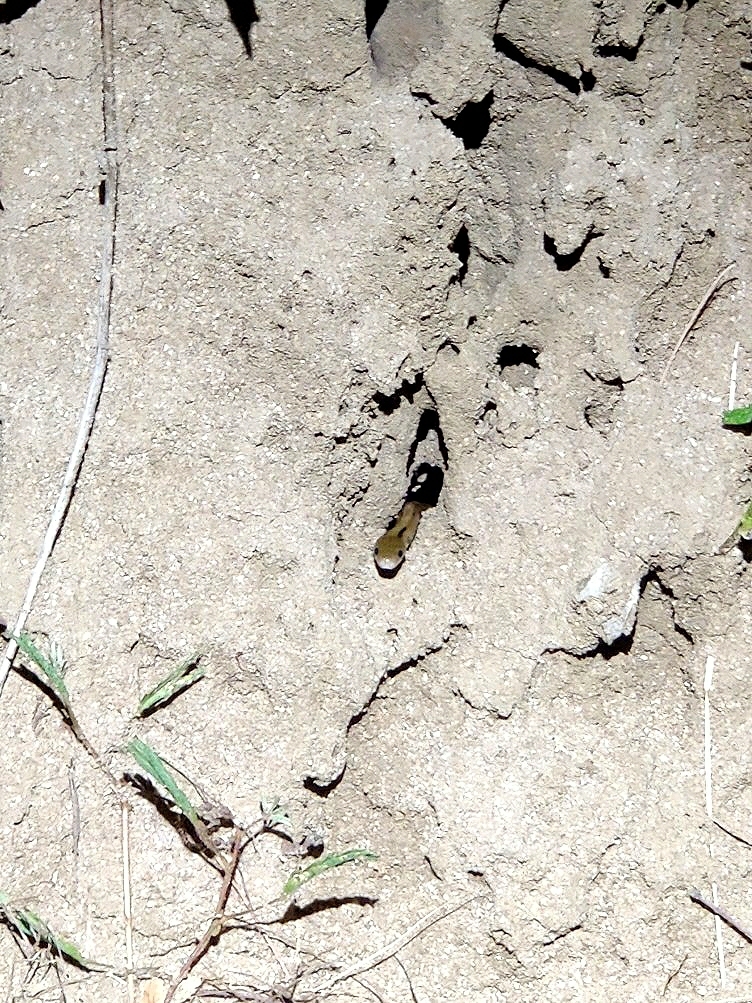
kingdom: Animalia
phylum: Chordata
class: Squamata
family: Colubridae
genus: Coelognathus
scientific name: Coelognathus helena
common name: Trinket snake
